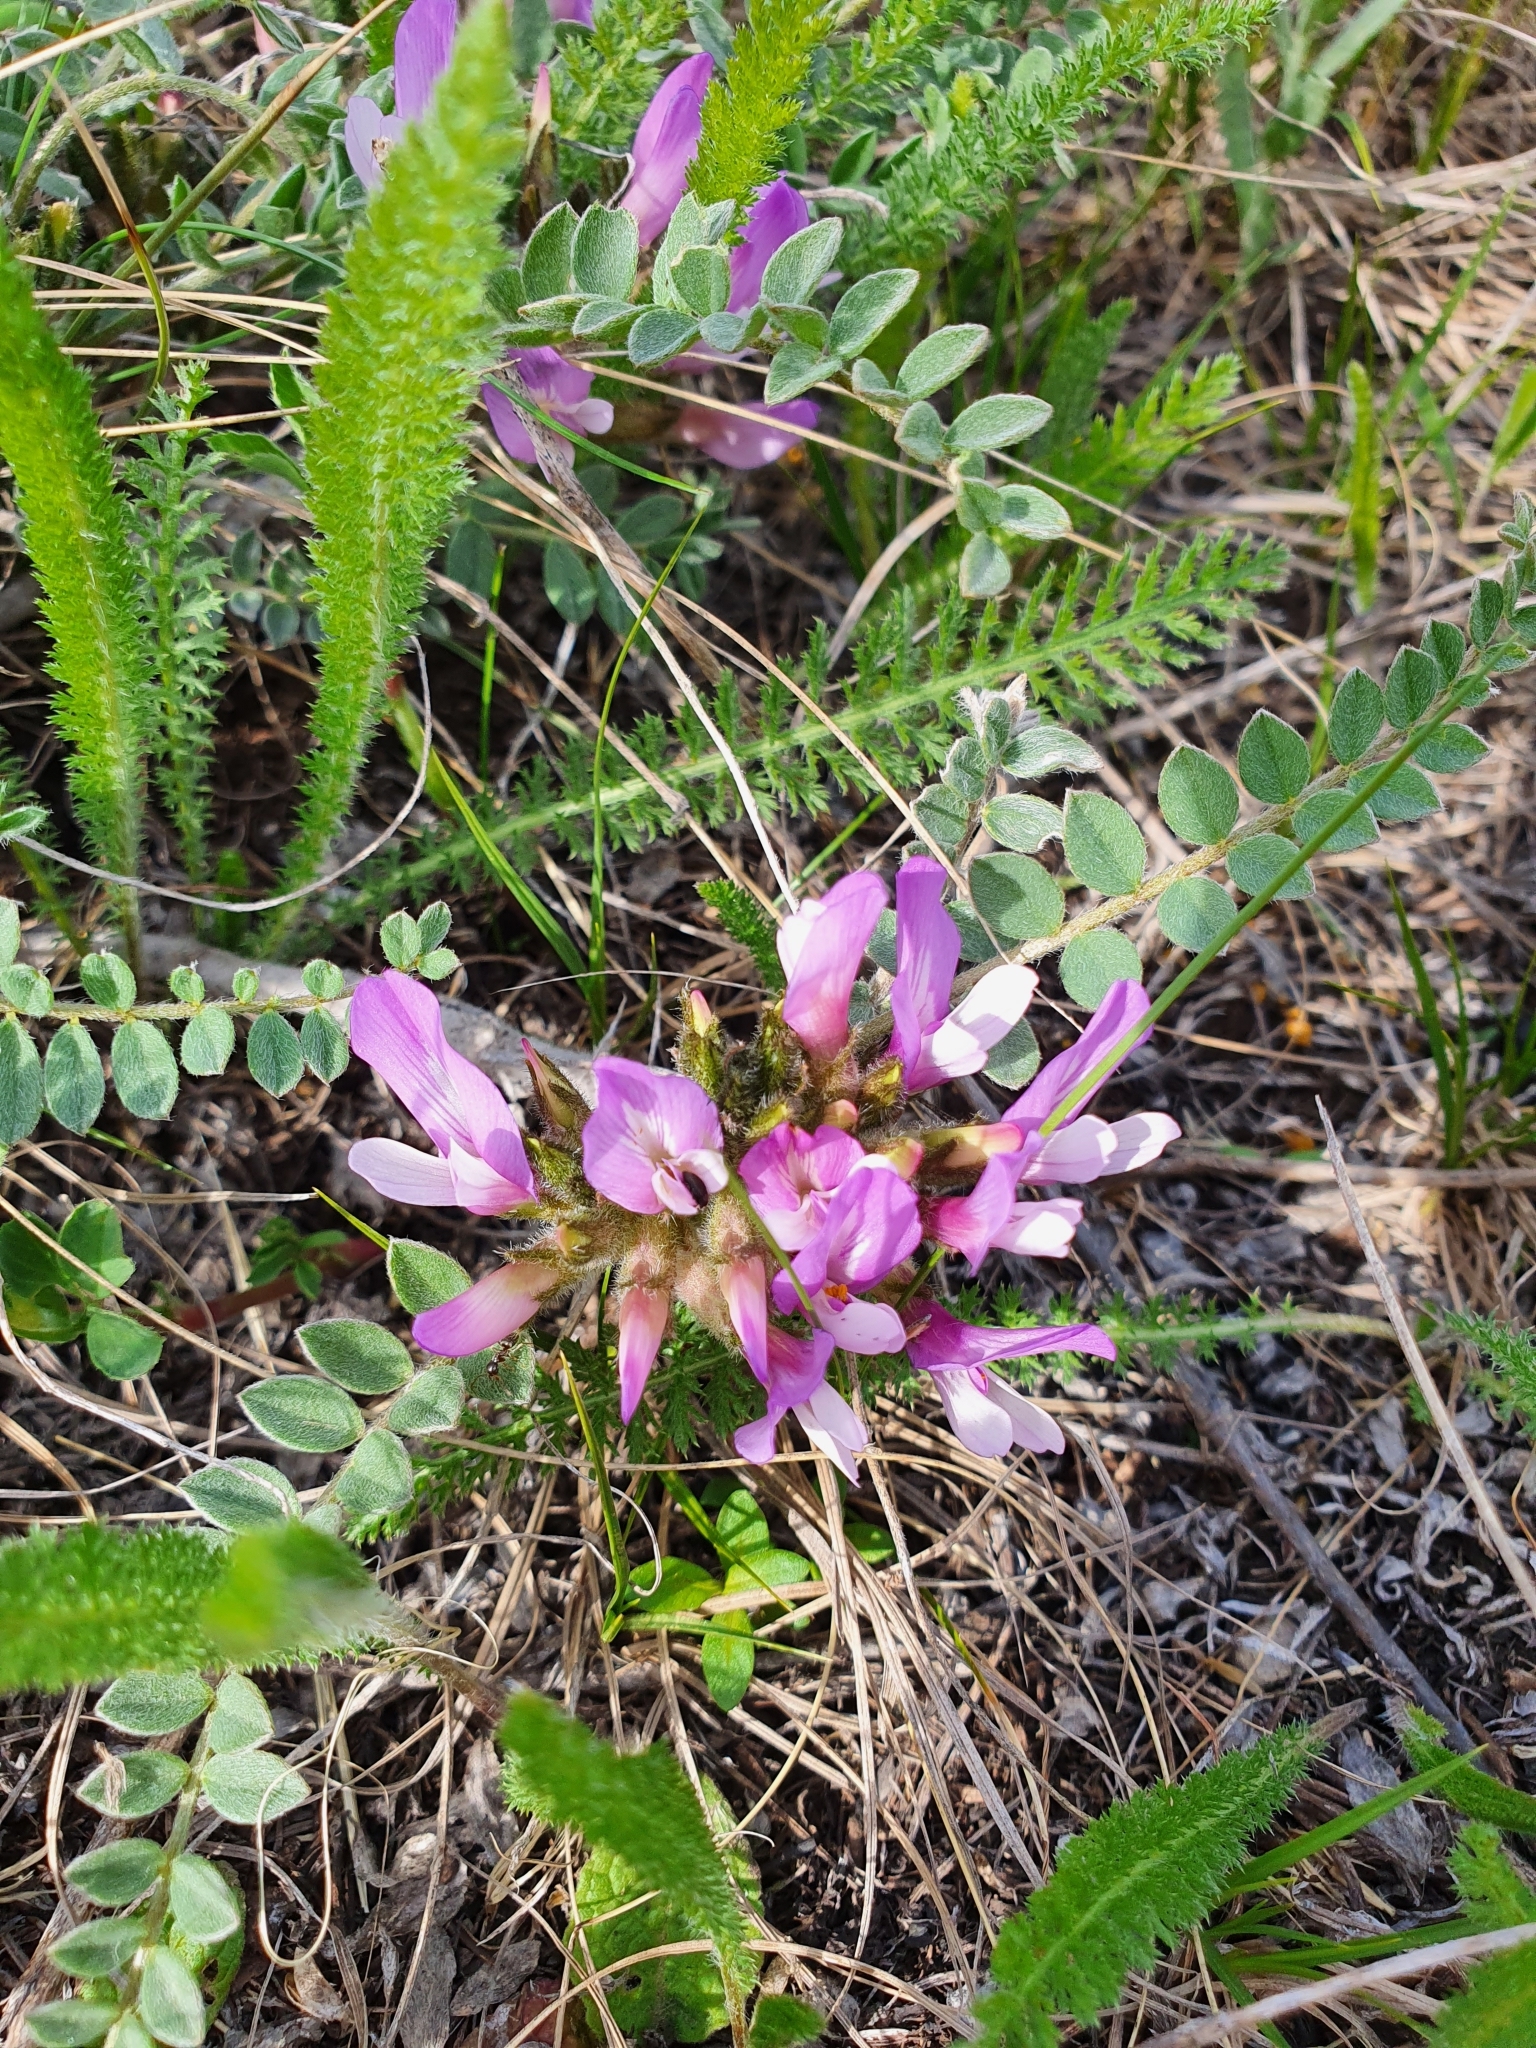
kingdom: Plantae
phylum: Tracheophyta
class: Magnoliopsida
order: Fabales
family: Fabaceae
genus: Astragalus
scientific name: Astragalus testiculatus
